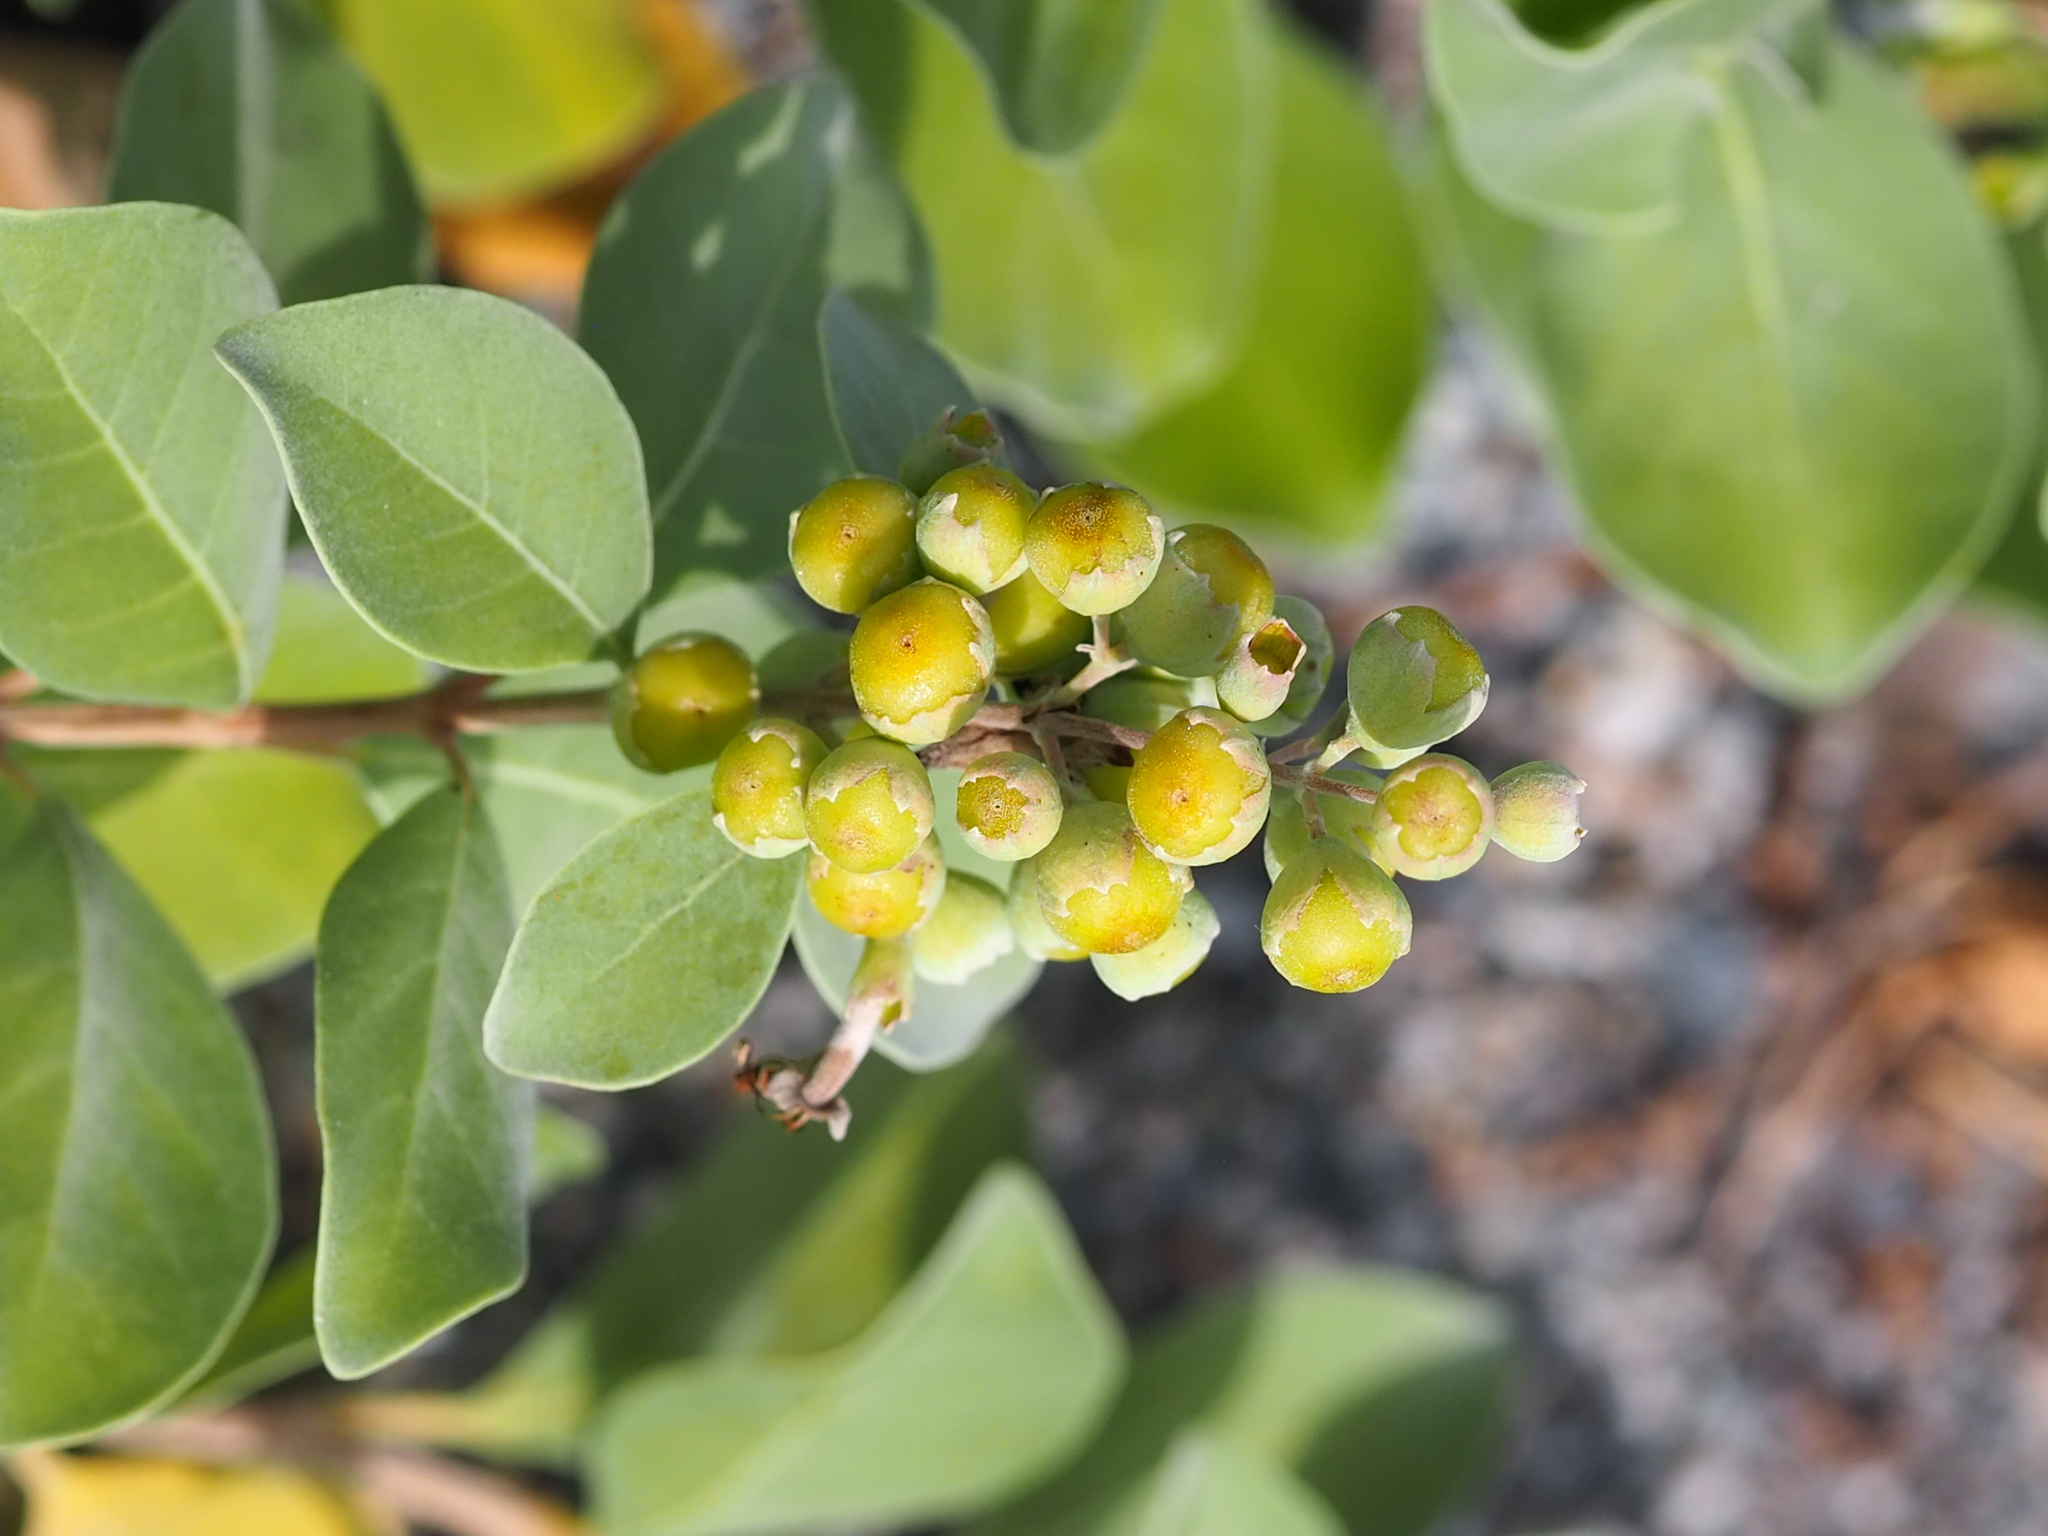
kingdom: Plantae
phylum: Tracheophyta
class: Magnoliopsida
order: Lamiales
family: Lamiaceae
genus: Vitex
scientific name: Vitex rotundifolia
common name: Beach vitex
